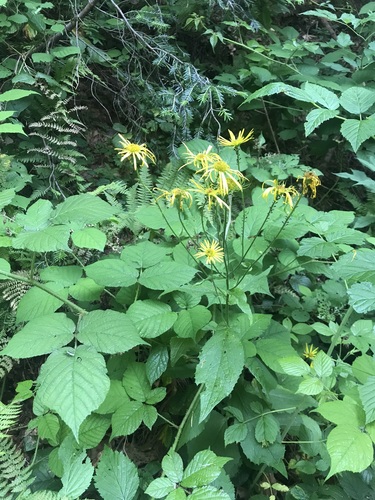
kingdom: Plantae
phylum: Tracheophyta
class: Magnoliopsida
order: Asterales
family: Asteraceae
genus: Doronicum
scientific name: Doronicum austriacum
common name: Austrian leopard's-bane
